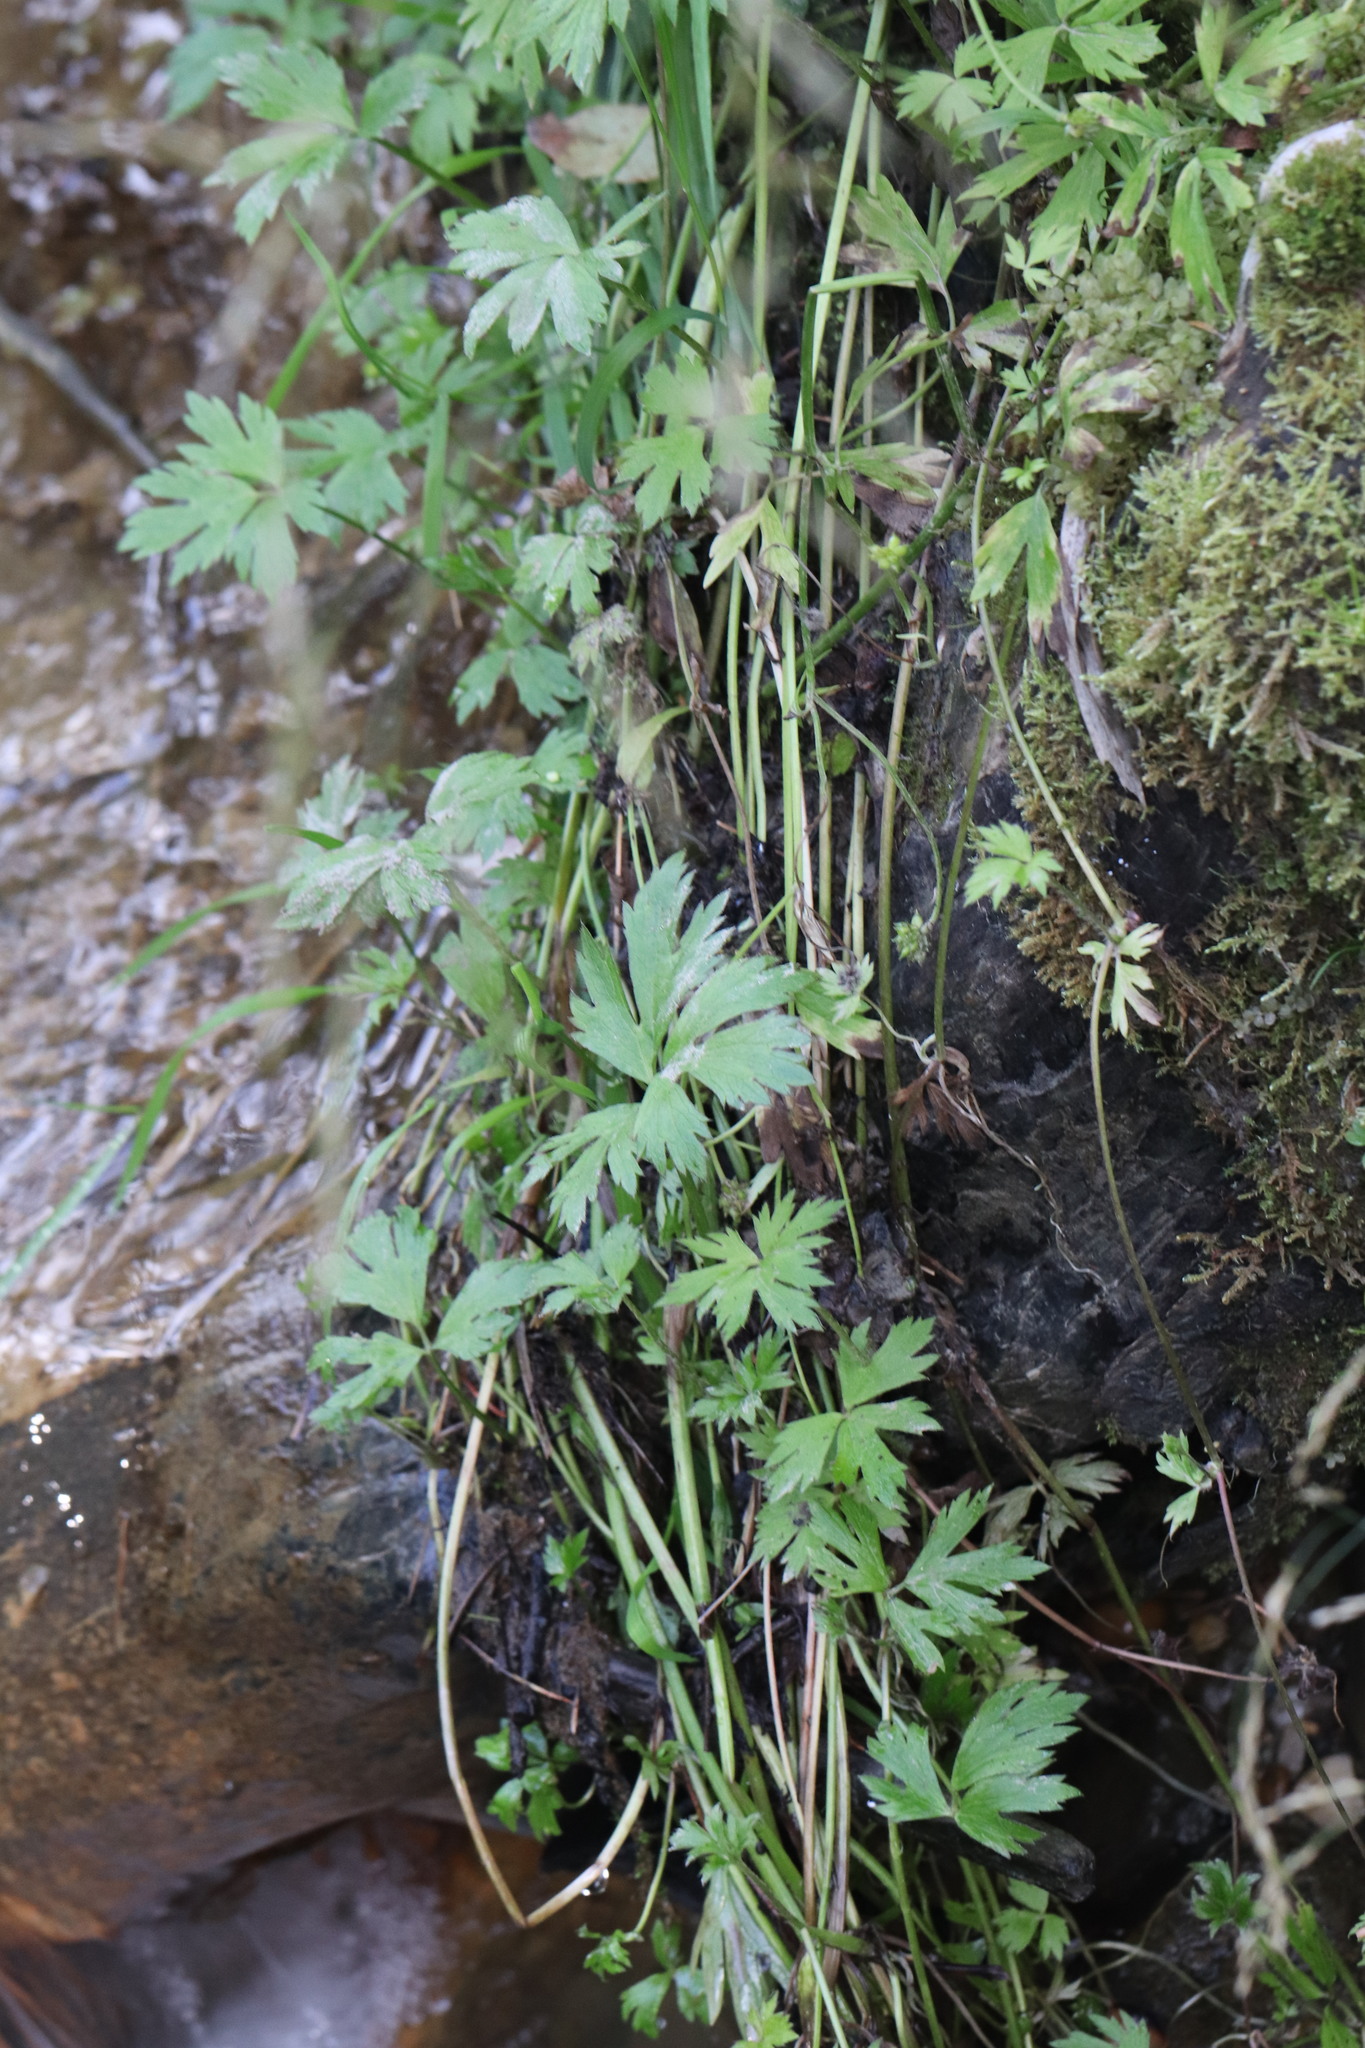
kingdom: Plantae
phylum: Tracheophyta
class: Magnoliopsida
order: Ranunculales
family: Ranunculaceae
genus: Ranunculus
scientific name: Ranunculus repens
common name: Creeping buttercup
